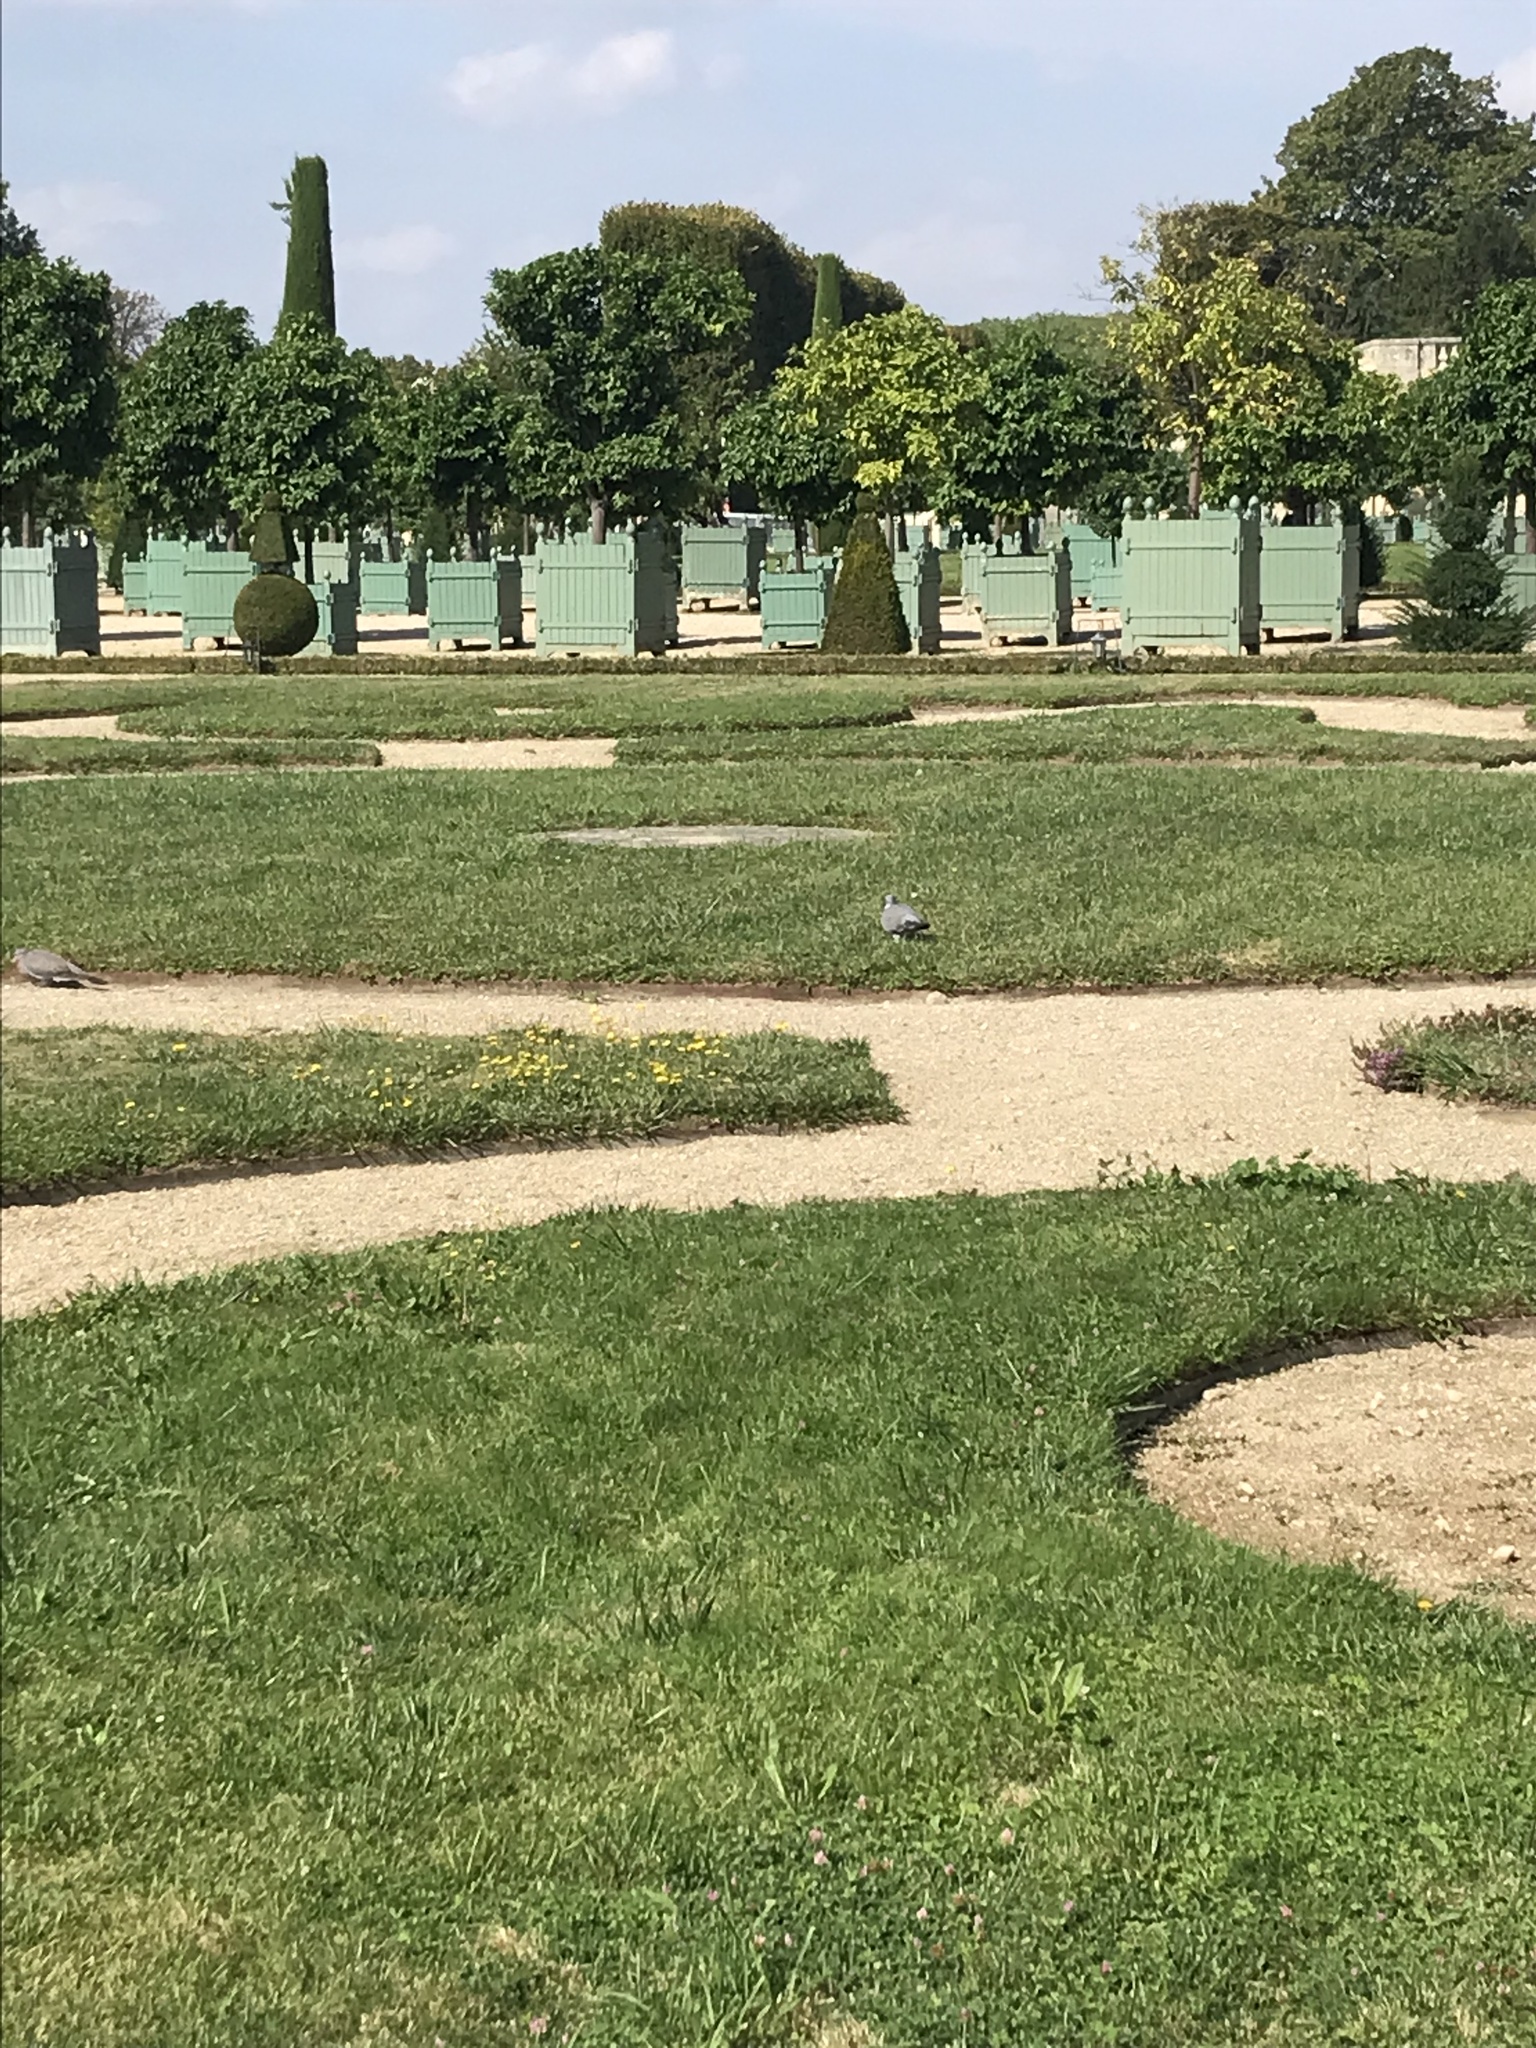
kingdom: Animalia
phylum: Chordata
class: Aves
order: Columbiformes
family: Columbidae
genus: Columba
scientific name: Columba livia
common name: Rock pigeon
